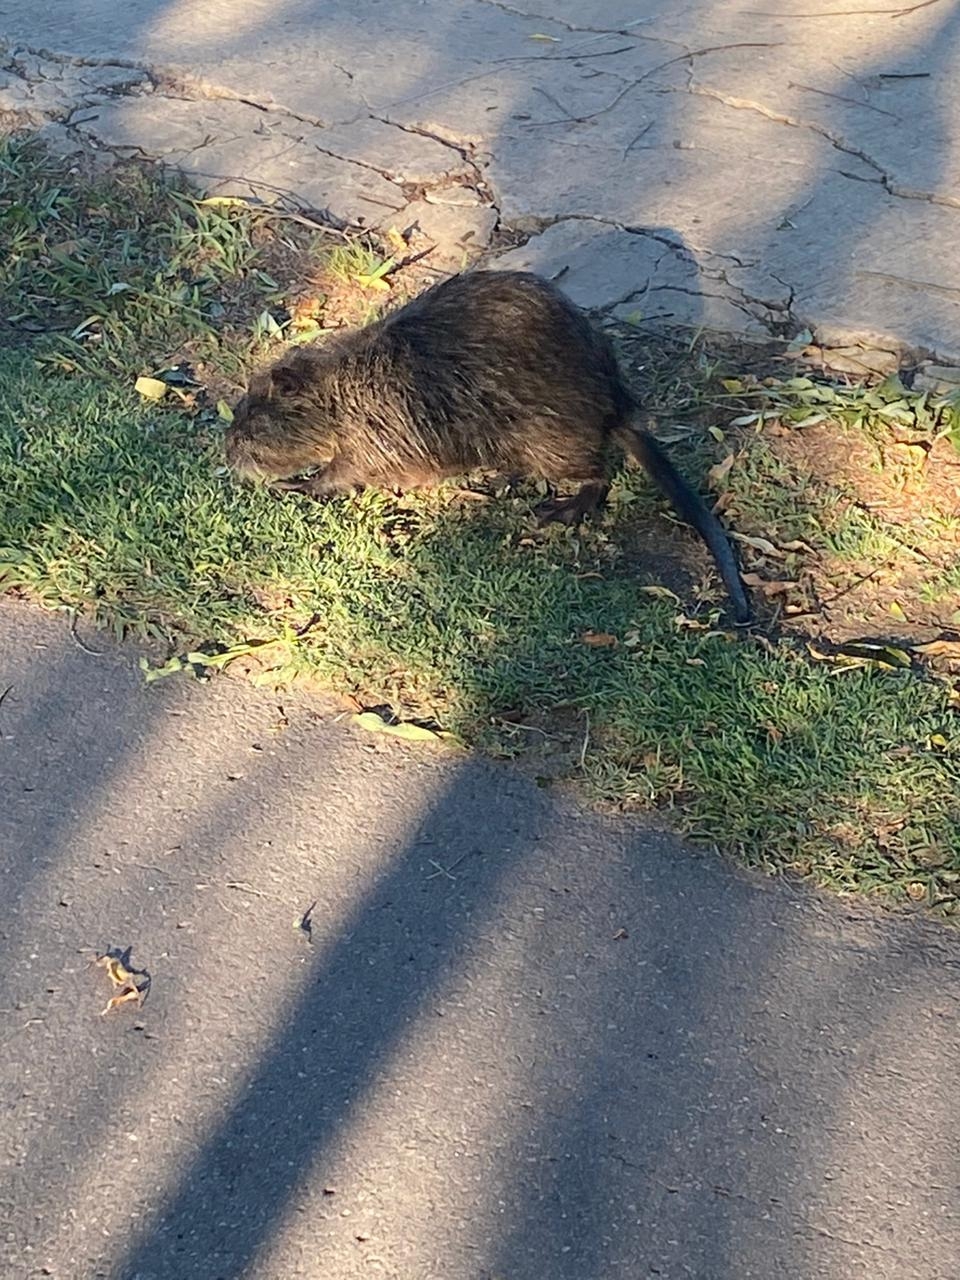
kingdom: Animalia
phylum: Chordata
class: Mammalia
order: Rodentia
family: Myocastoridae
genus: Myocastor
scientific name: Myocastor coypus
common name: Coypu
